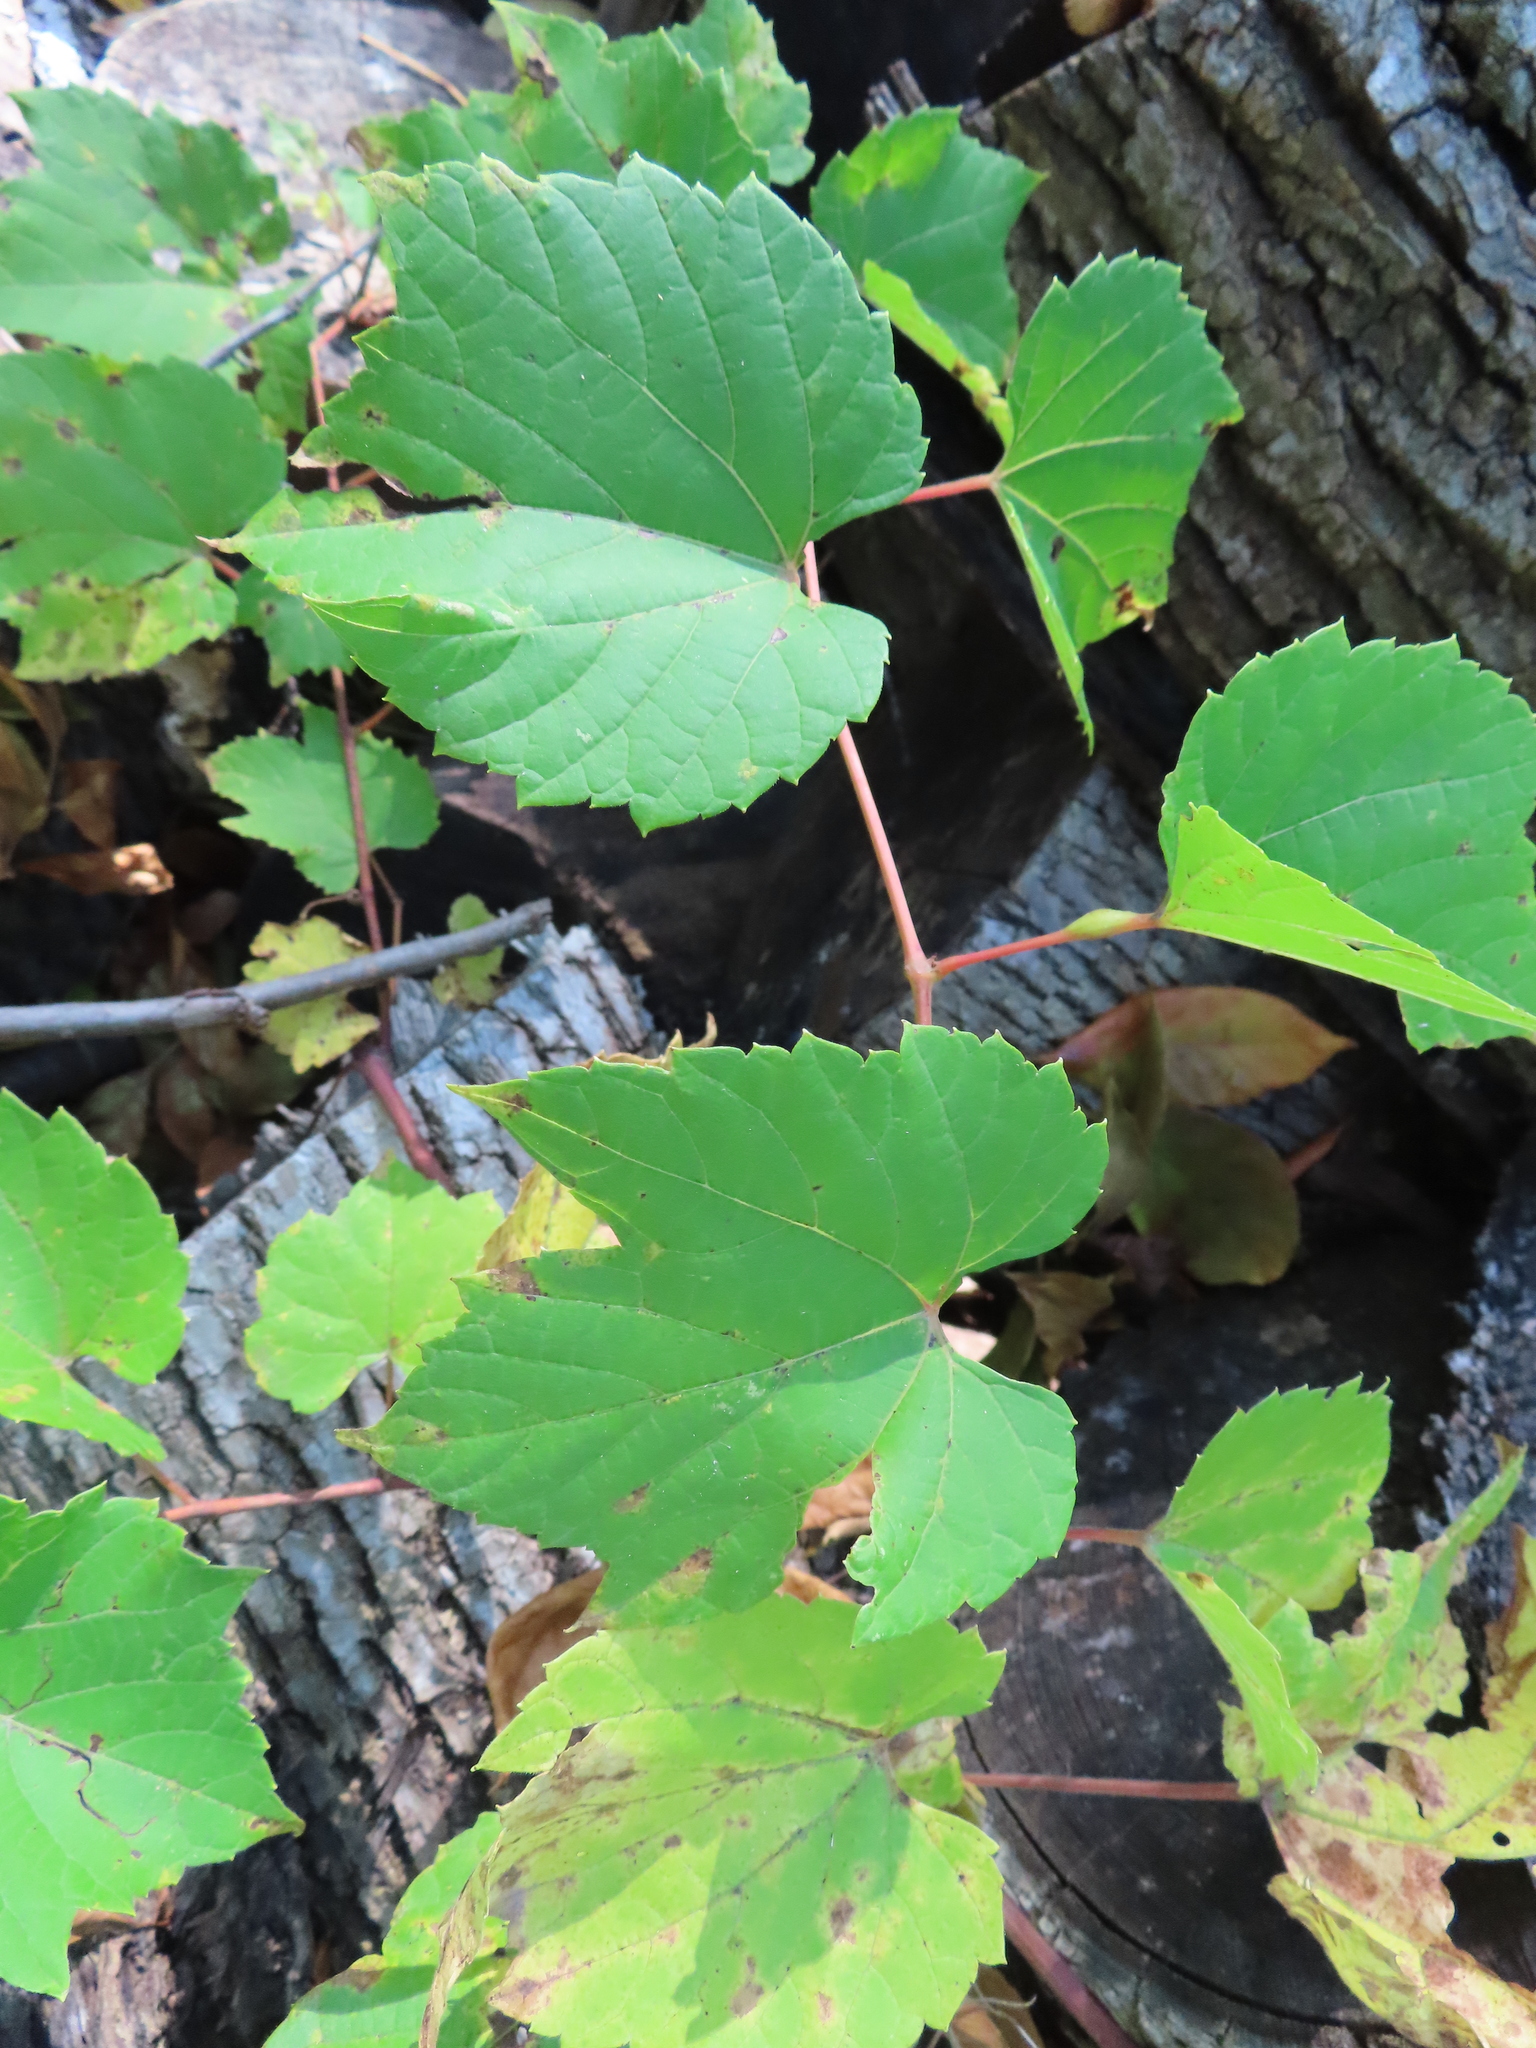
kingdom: Plantae
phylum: Tracheophyta
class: Magnoliopsida
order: Vitales
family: Vitaceae
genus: Vitis
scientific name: Vitis riparia
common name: Frost grape
